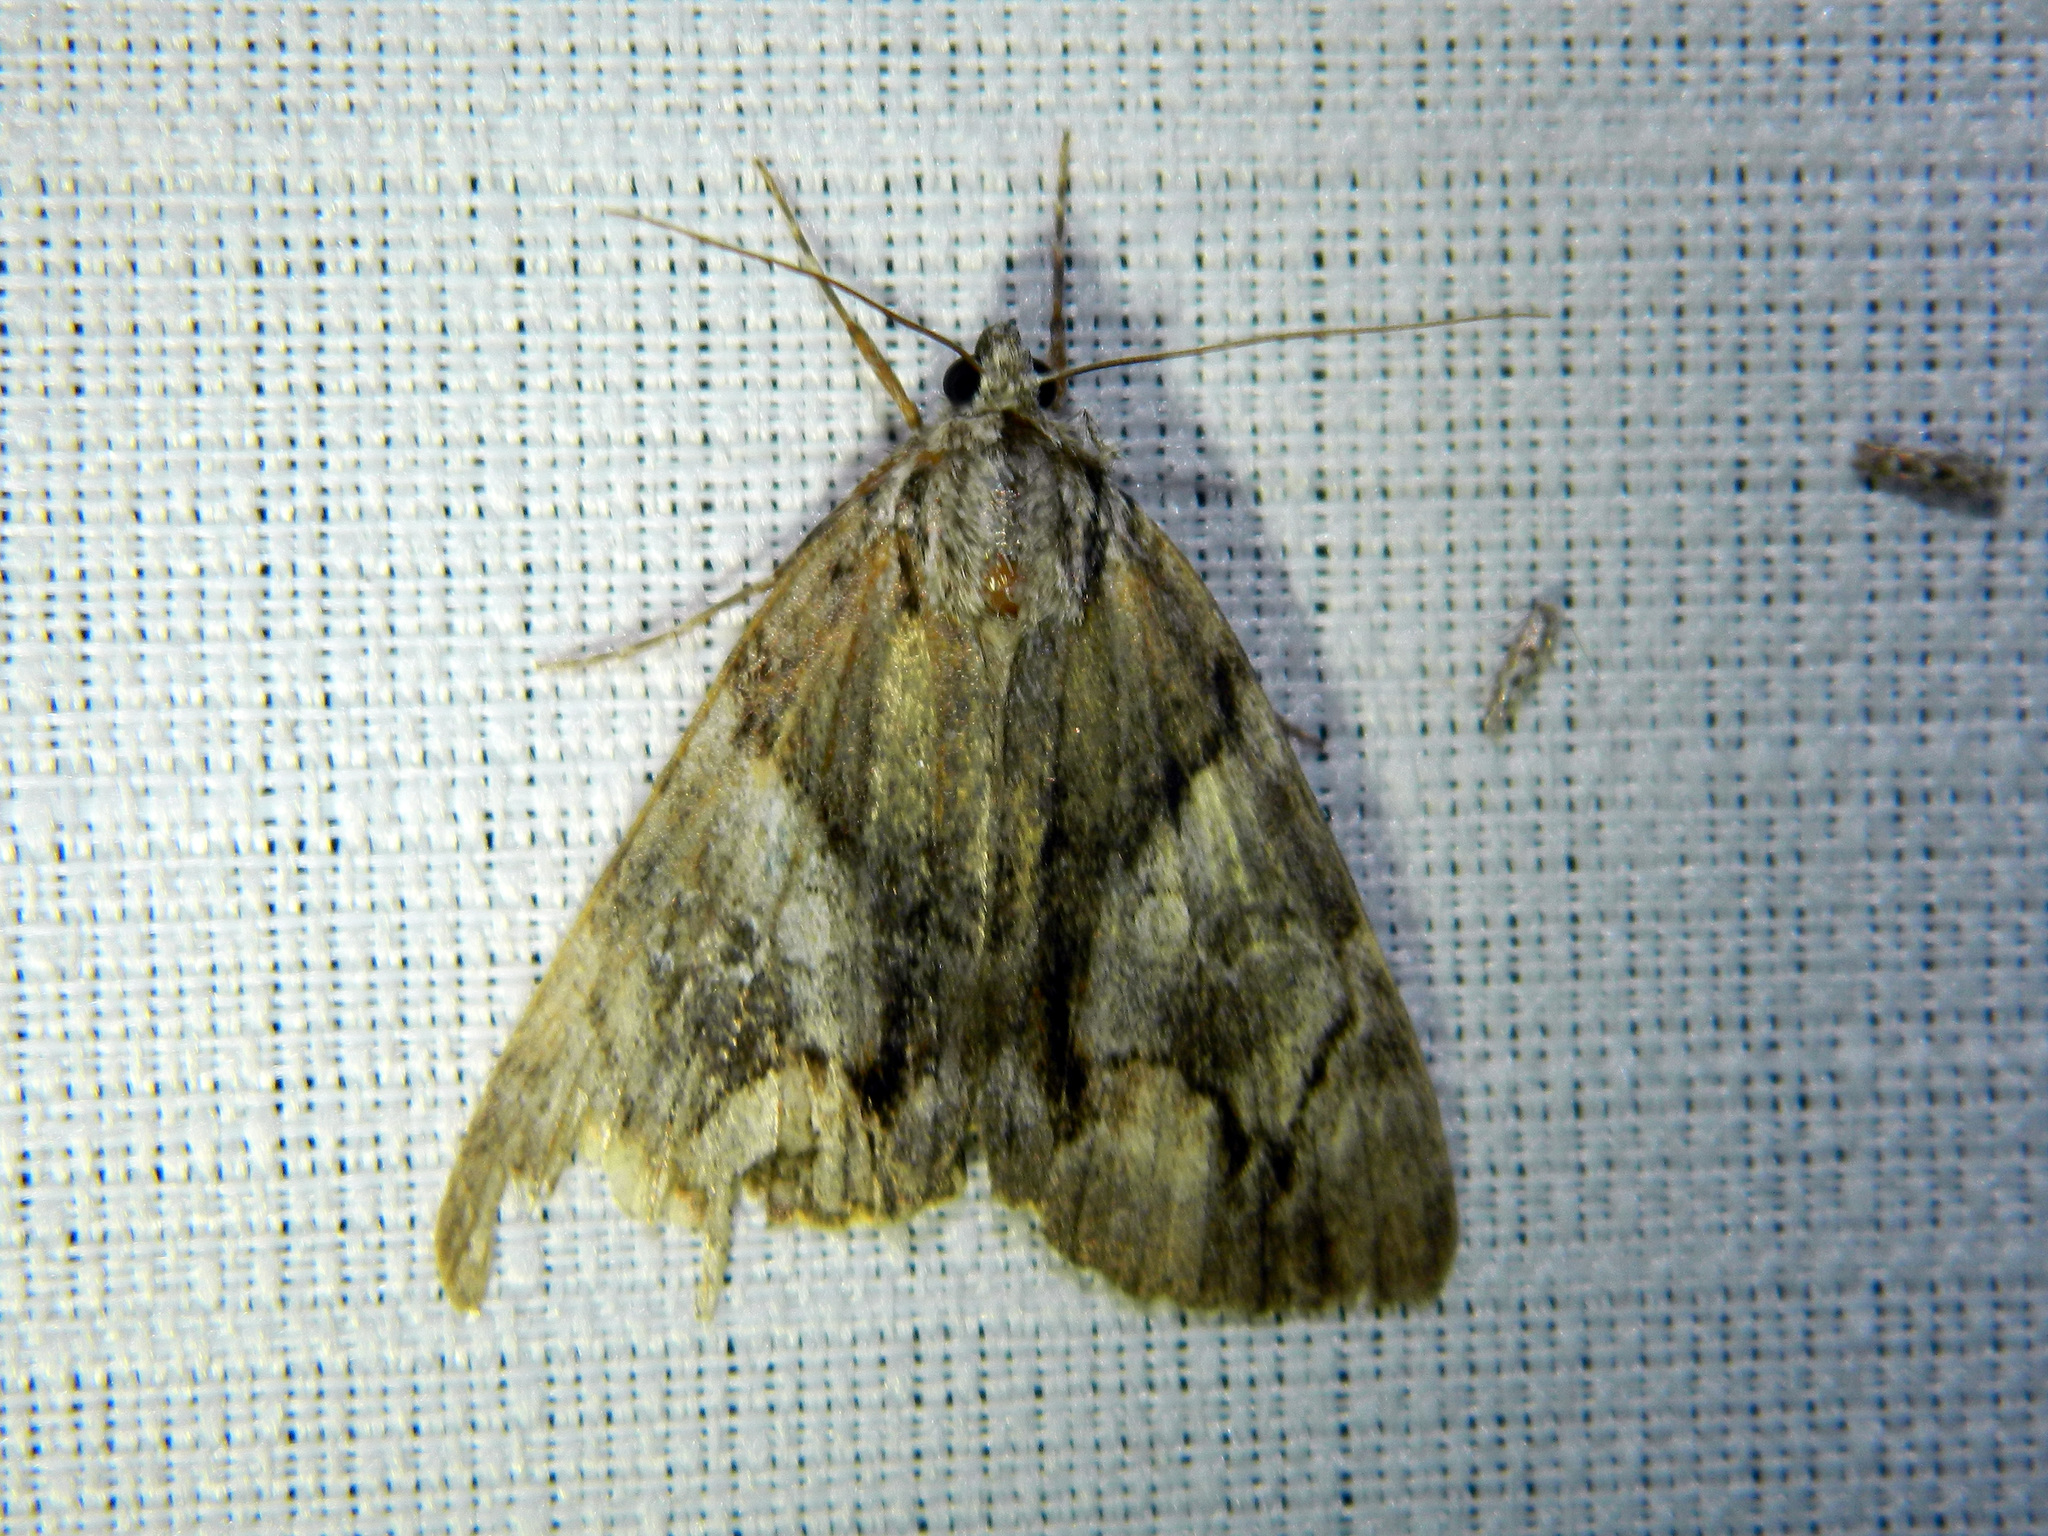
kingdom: Animalia
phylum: Arthropoda
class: Insecta
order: Lepidoptera
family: Erebidae
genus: Catocala
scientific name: Catocala blandula
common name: Charming underwing
